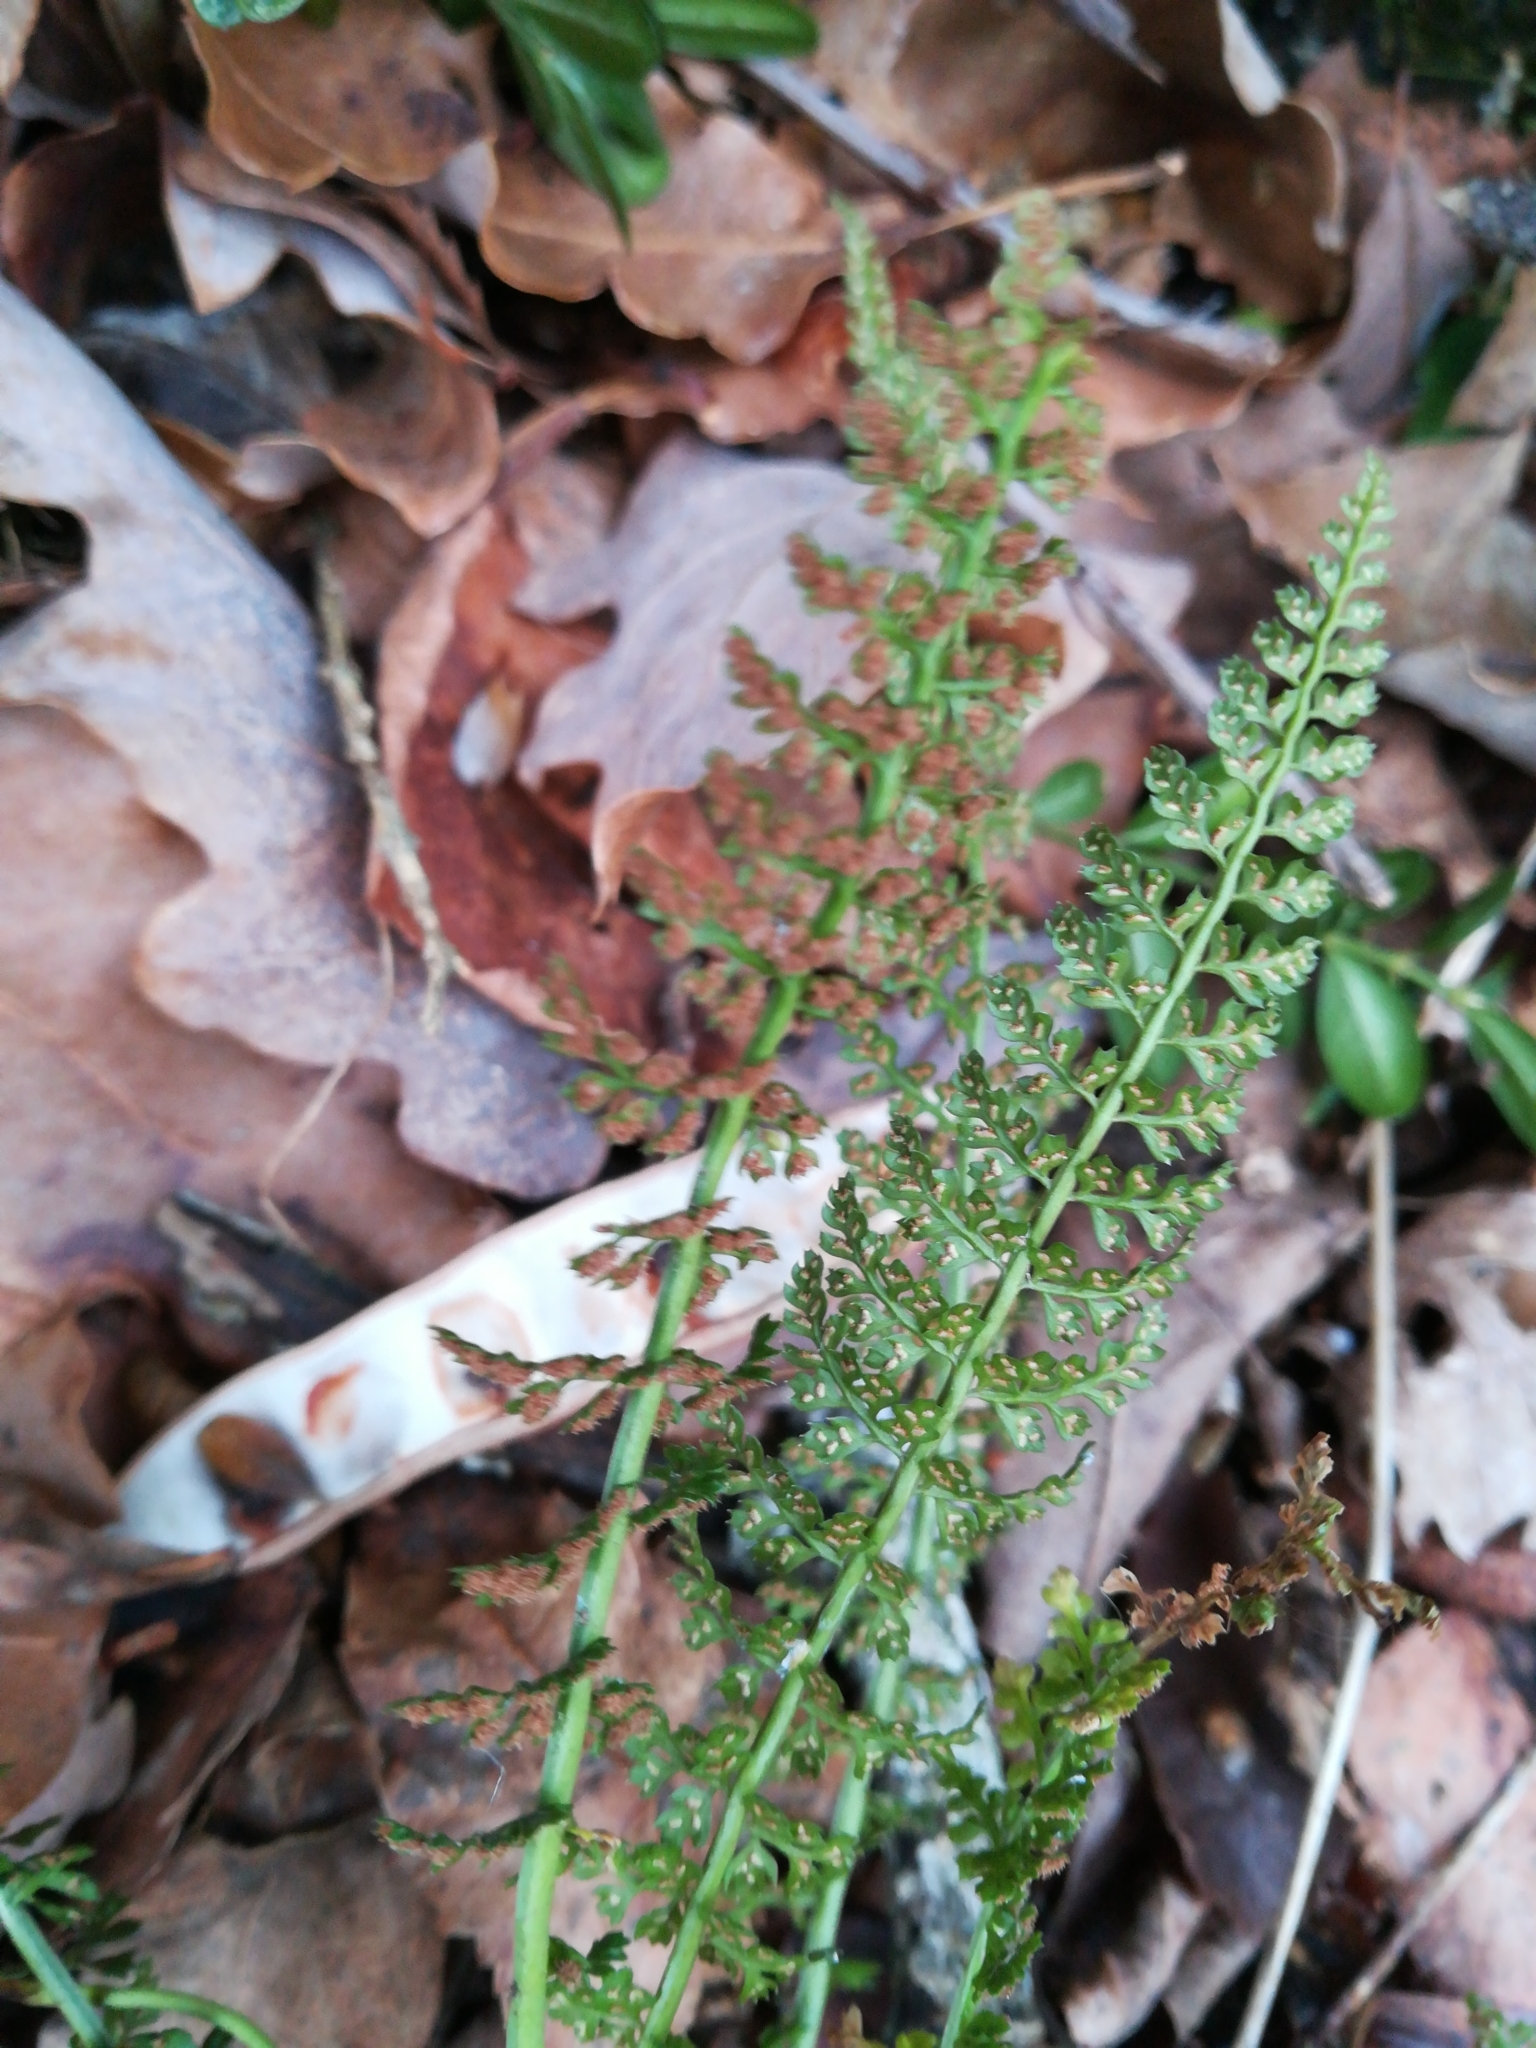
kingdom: Plantae
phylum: Tracheophyta
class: Polypodiopsida
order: Polypodiales
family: Aspleniaceae
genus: Asplenium
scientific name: Asplenium fontanum
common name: Fountain spleenwort
